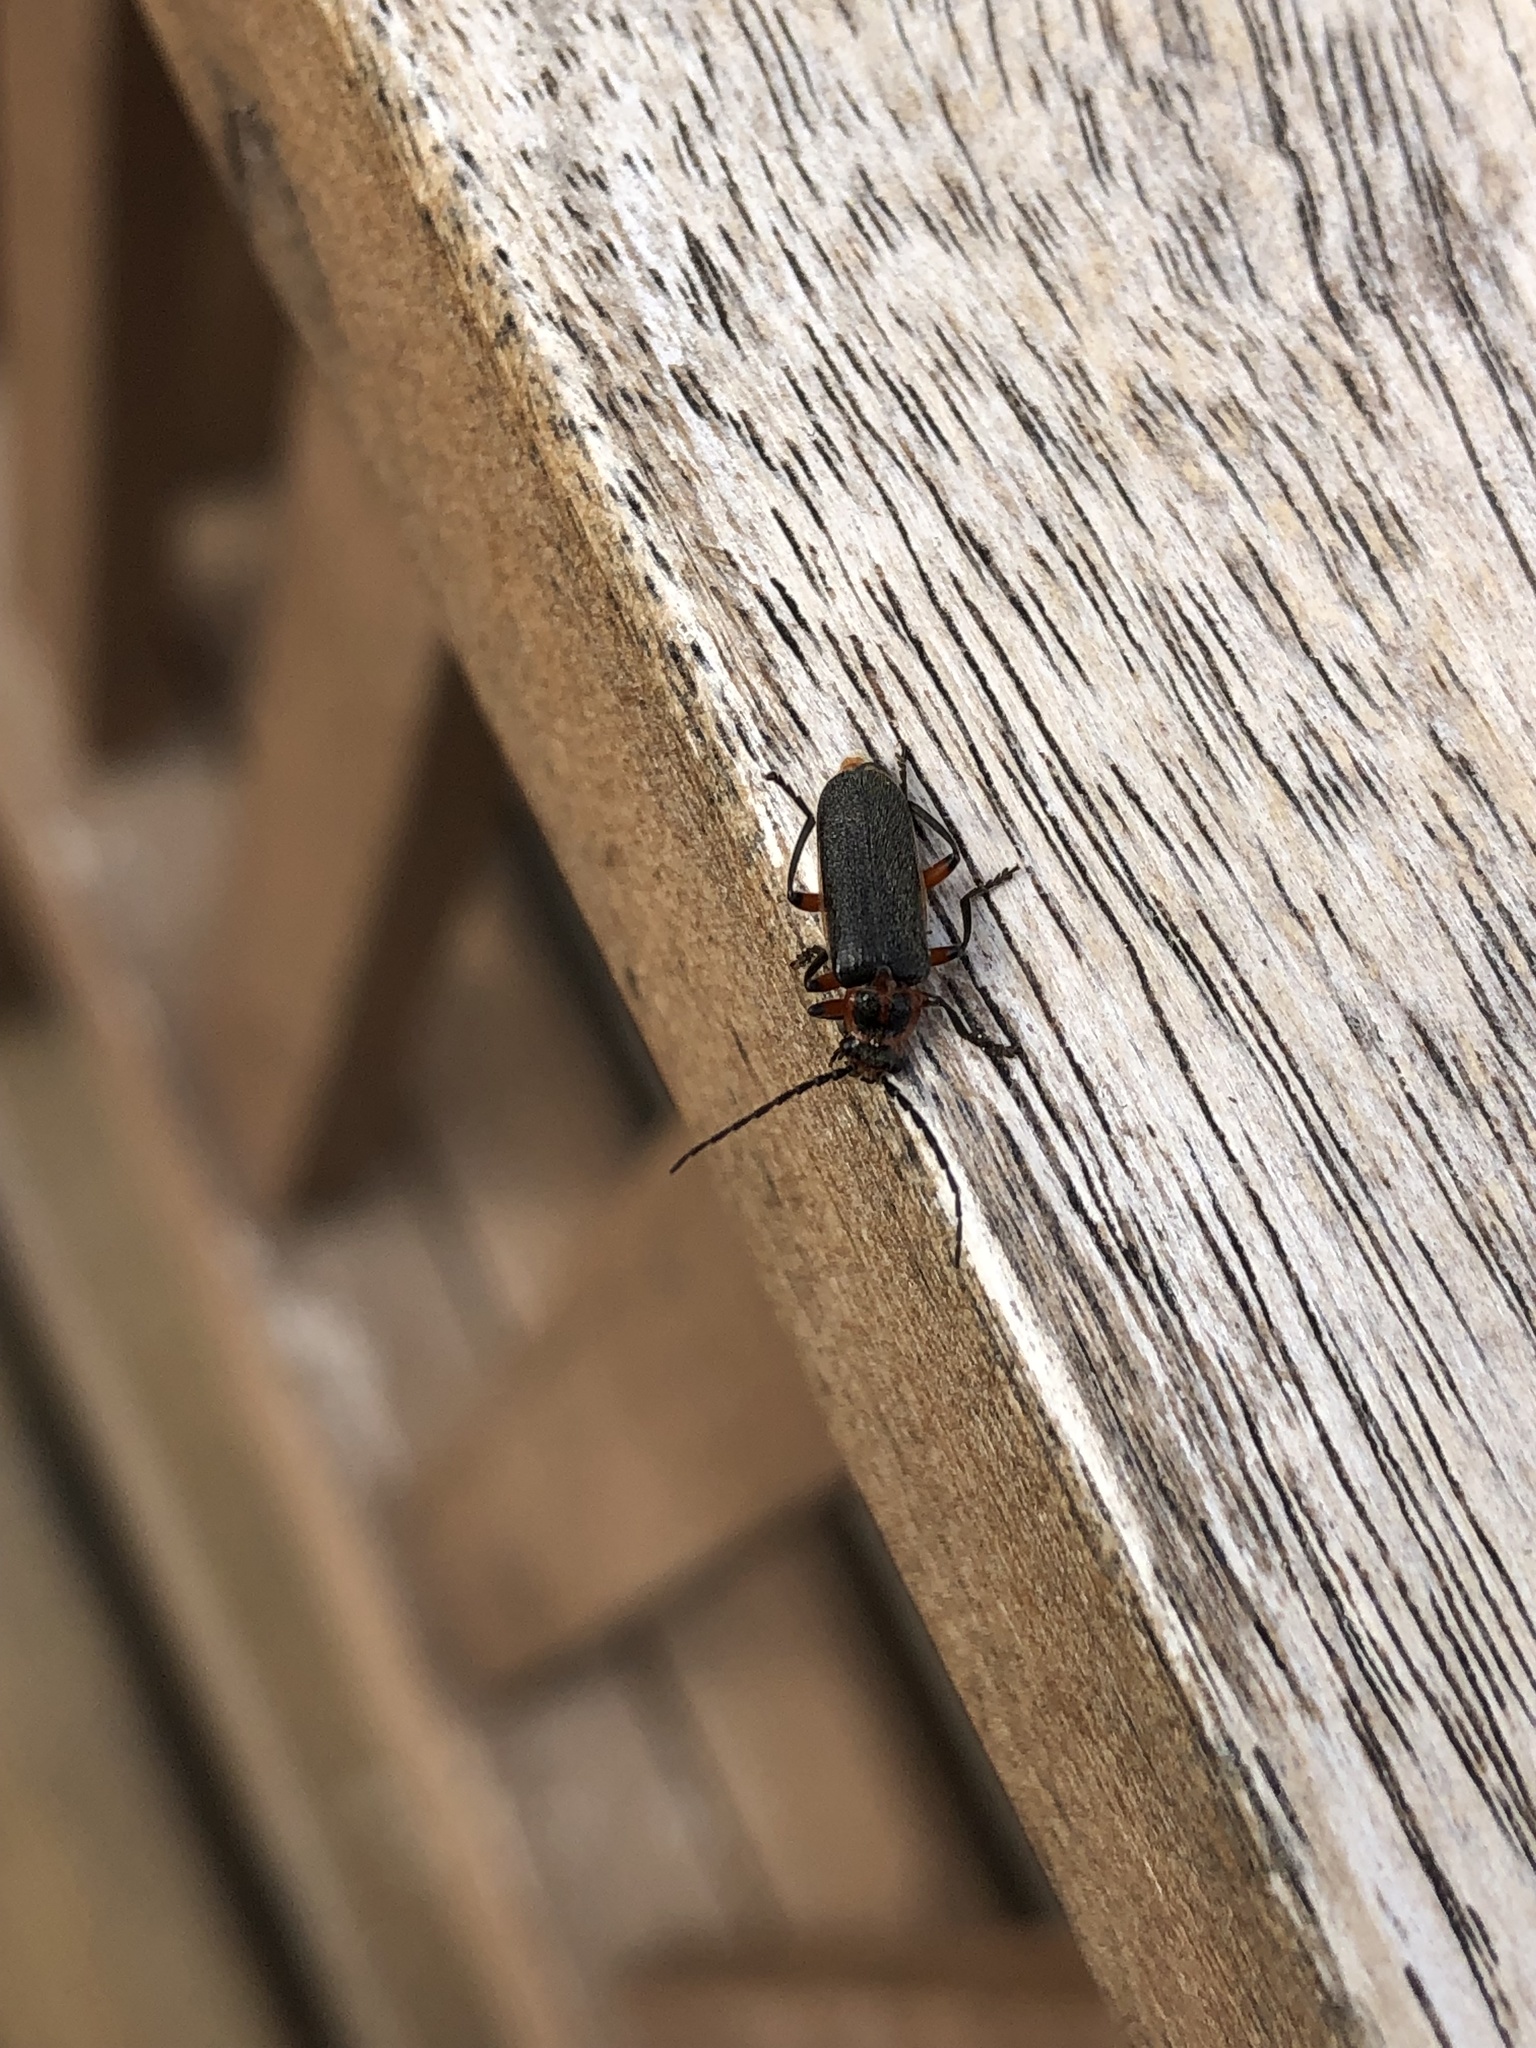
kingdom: Animalia
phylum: Arthropoda
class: Insecta
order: Coleoptera
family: Cantharidae
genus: Atalantycha
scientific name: Atalantycha bilineata
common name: Two-lined leatherwing
